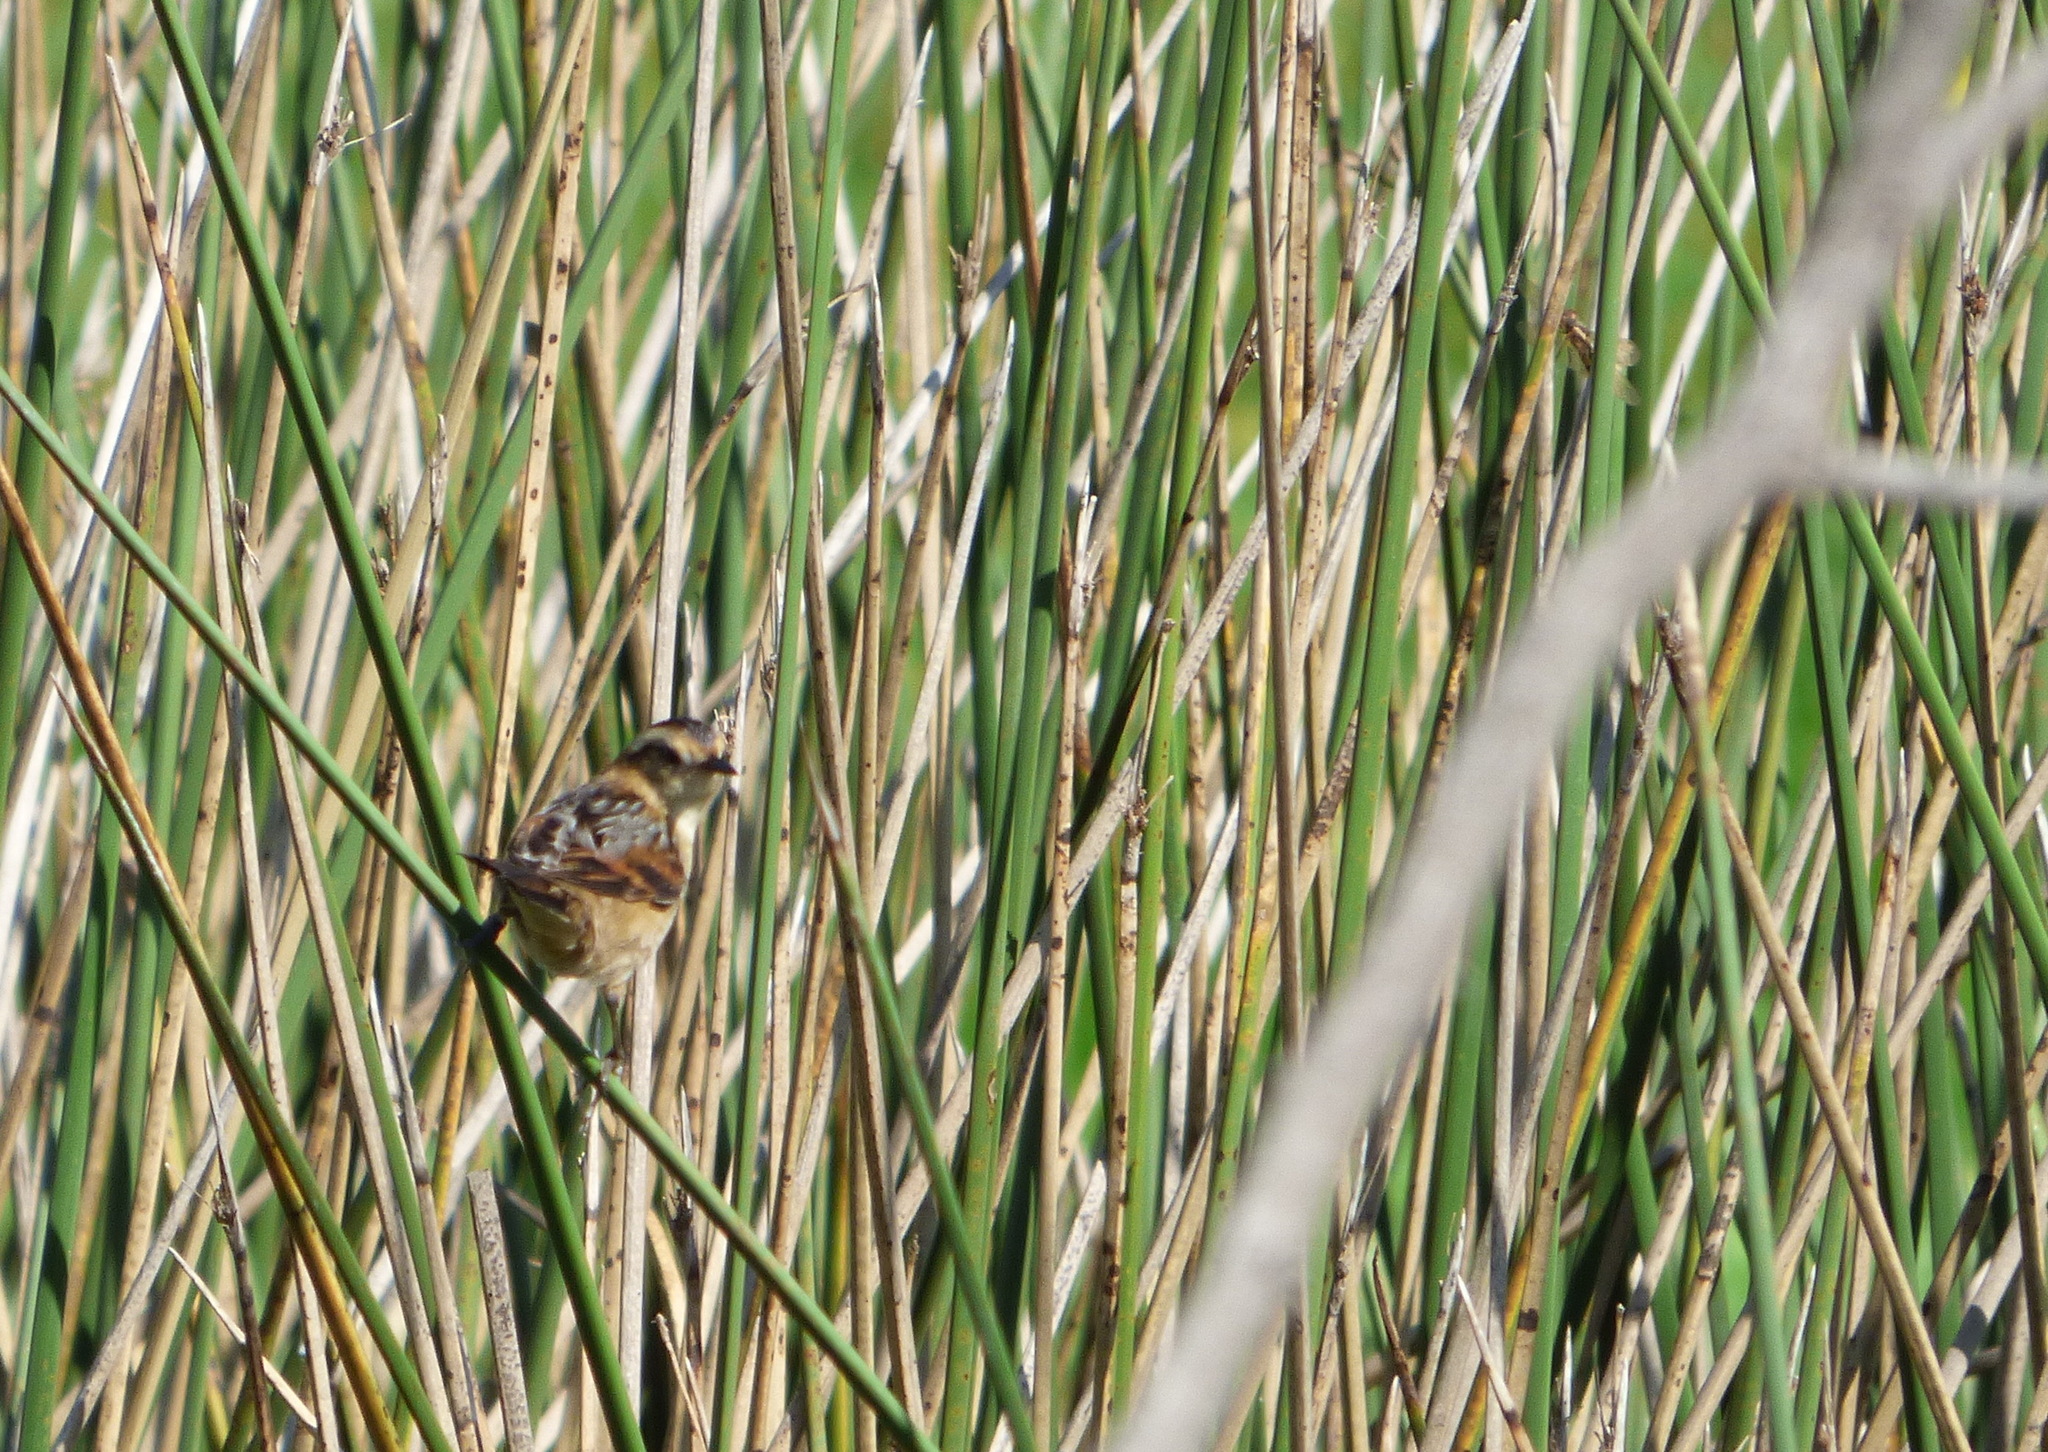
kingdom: Animalia
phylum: Chordata
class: Aves
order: Passeriformes
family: Furnariidae
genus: Phleocryptes
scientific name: Phleocryptes melanops
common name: Wren-like rushbird
